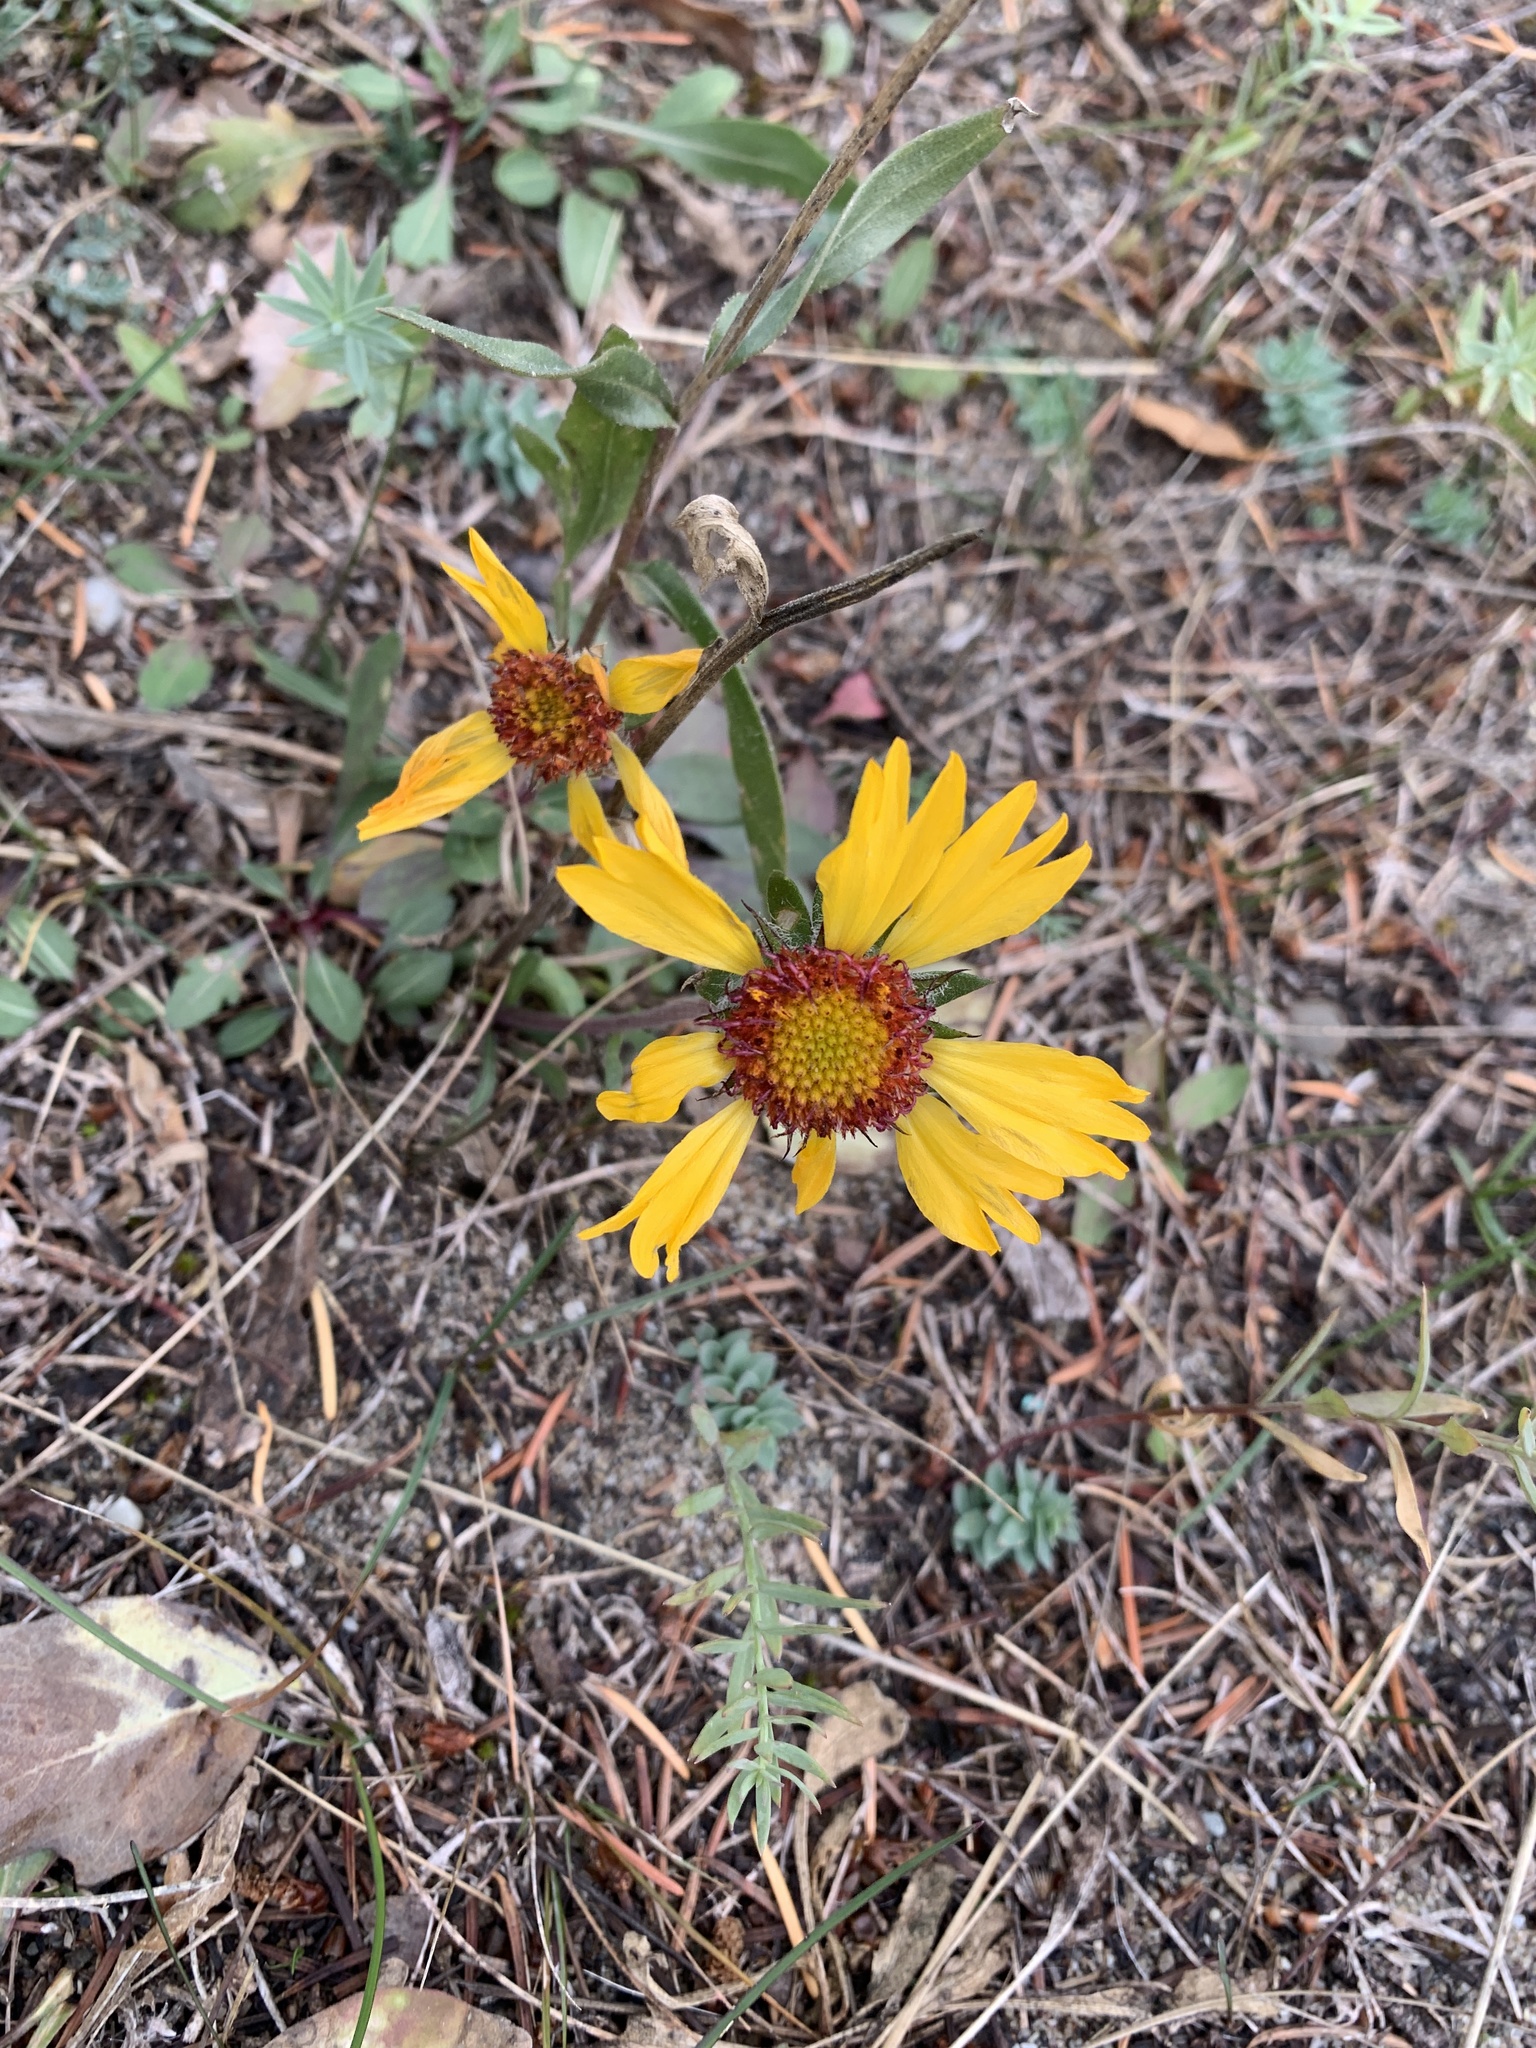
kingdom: Plantae
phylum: Tracheophyta
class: Magnoliopsida
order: Asterales
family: Asteraceae
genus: Gaillardia
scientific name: Gaillardia aristata
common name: Blanket-flower
